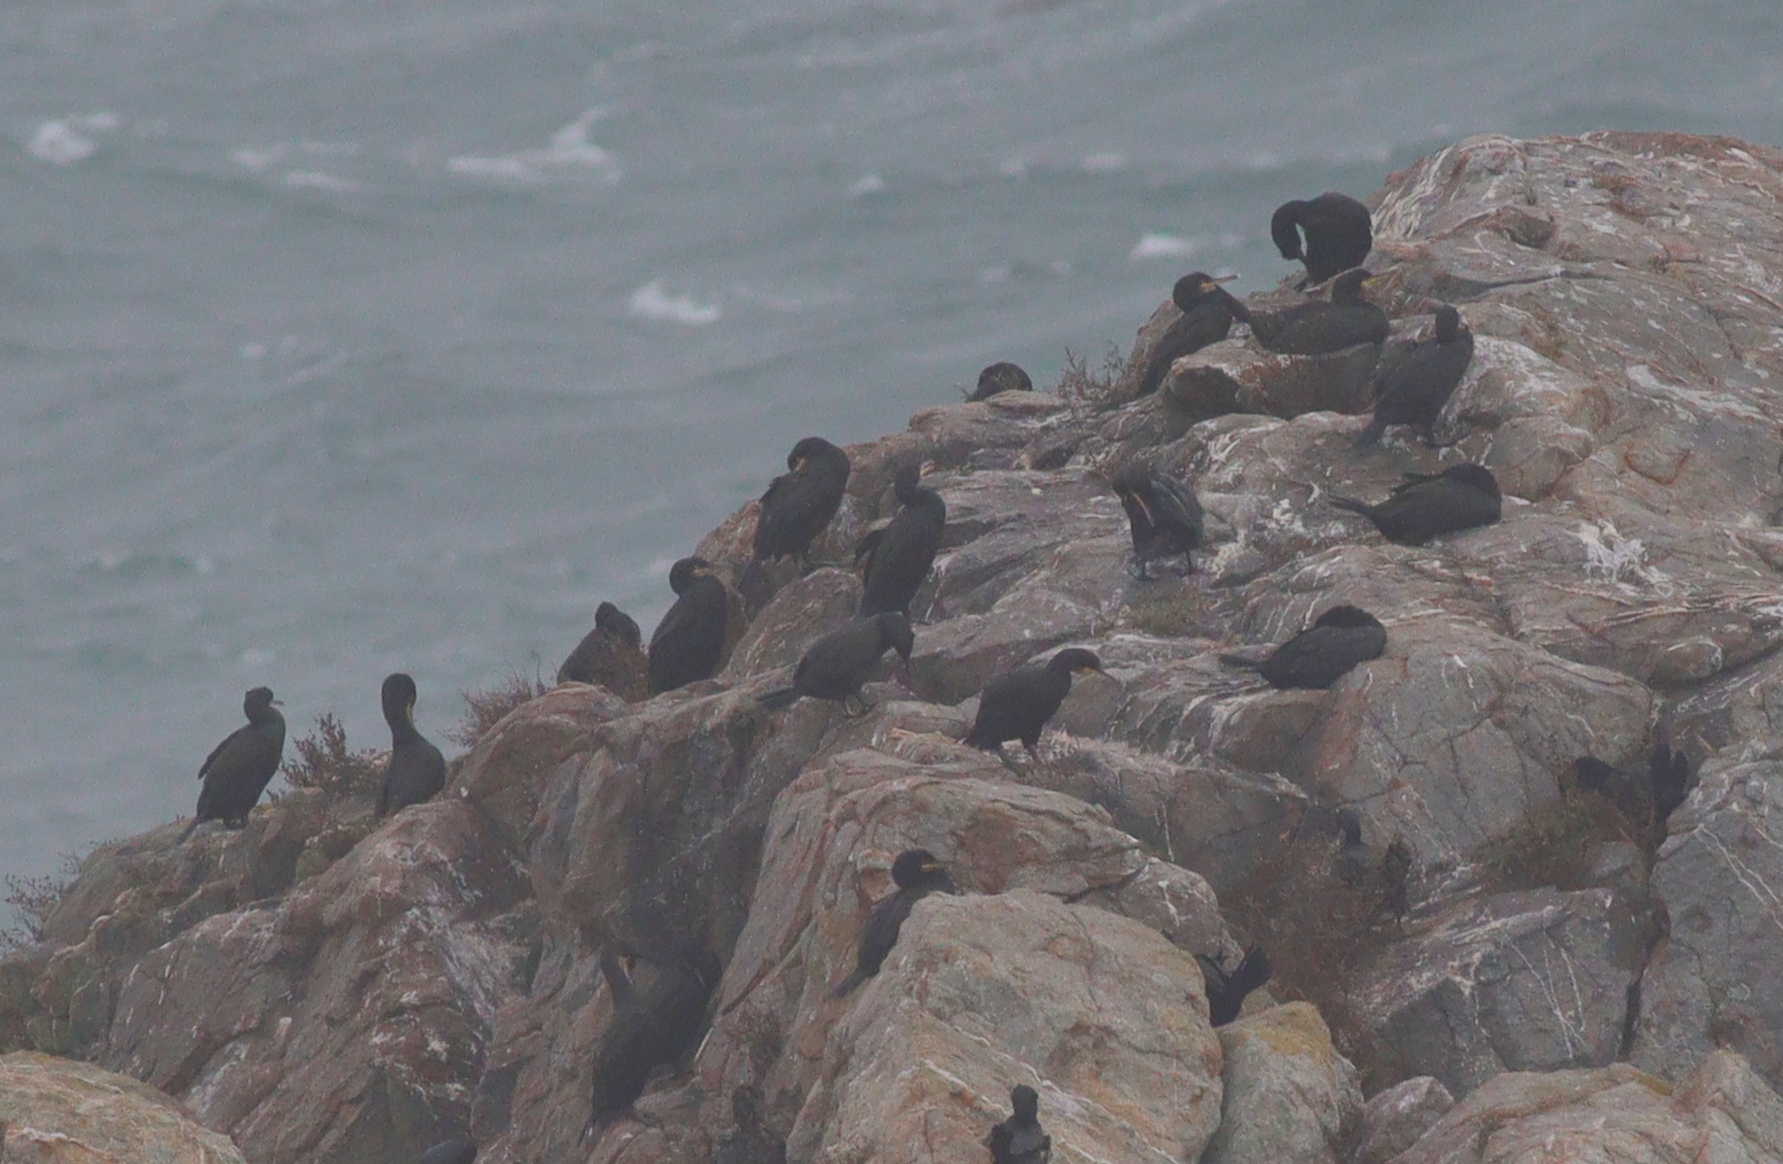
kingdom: Animalia
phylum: Chordata
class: Aves
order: Suliformes
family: Phalacrocoracidae
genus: Phalacrocorax
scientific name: Phalacrocorax aristotelis
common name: European shag
